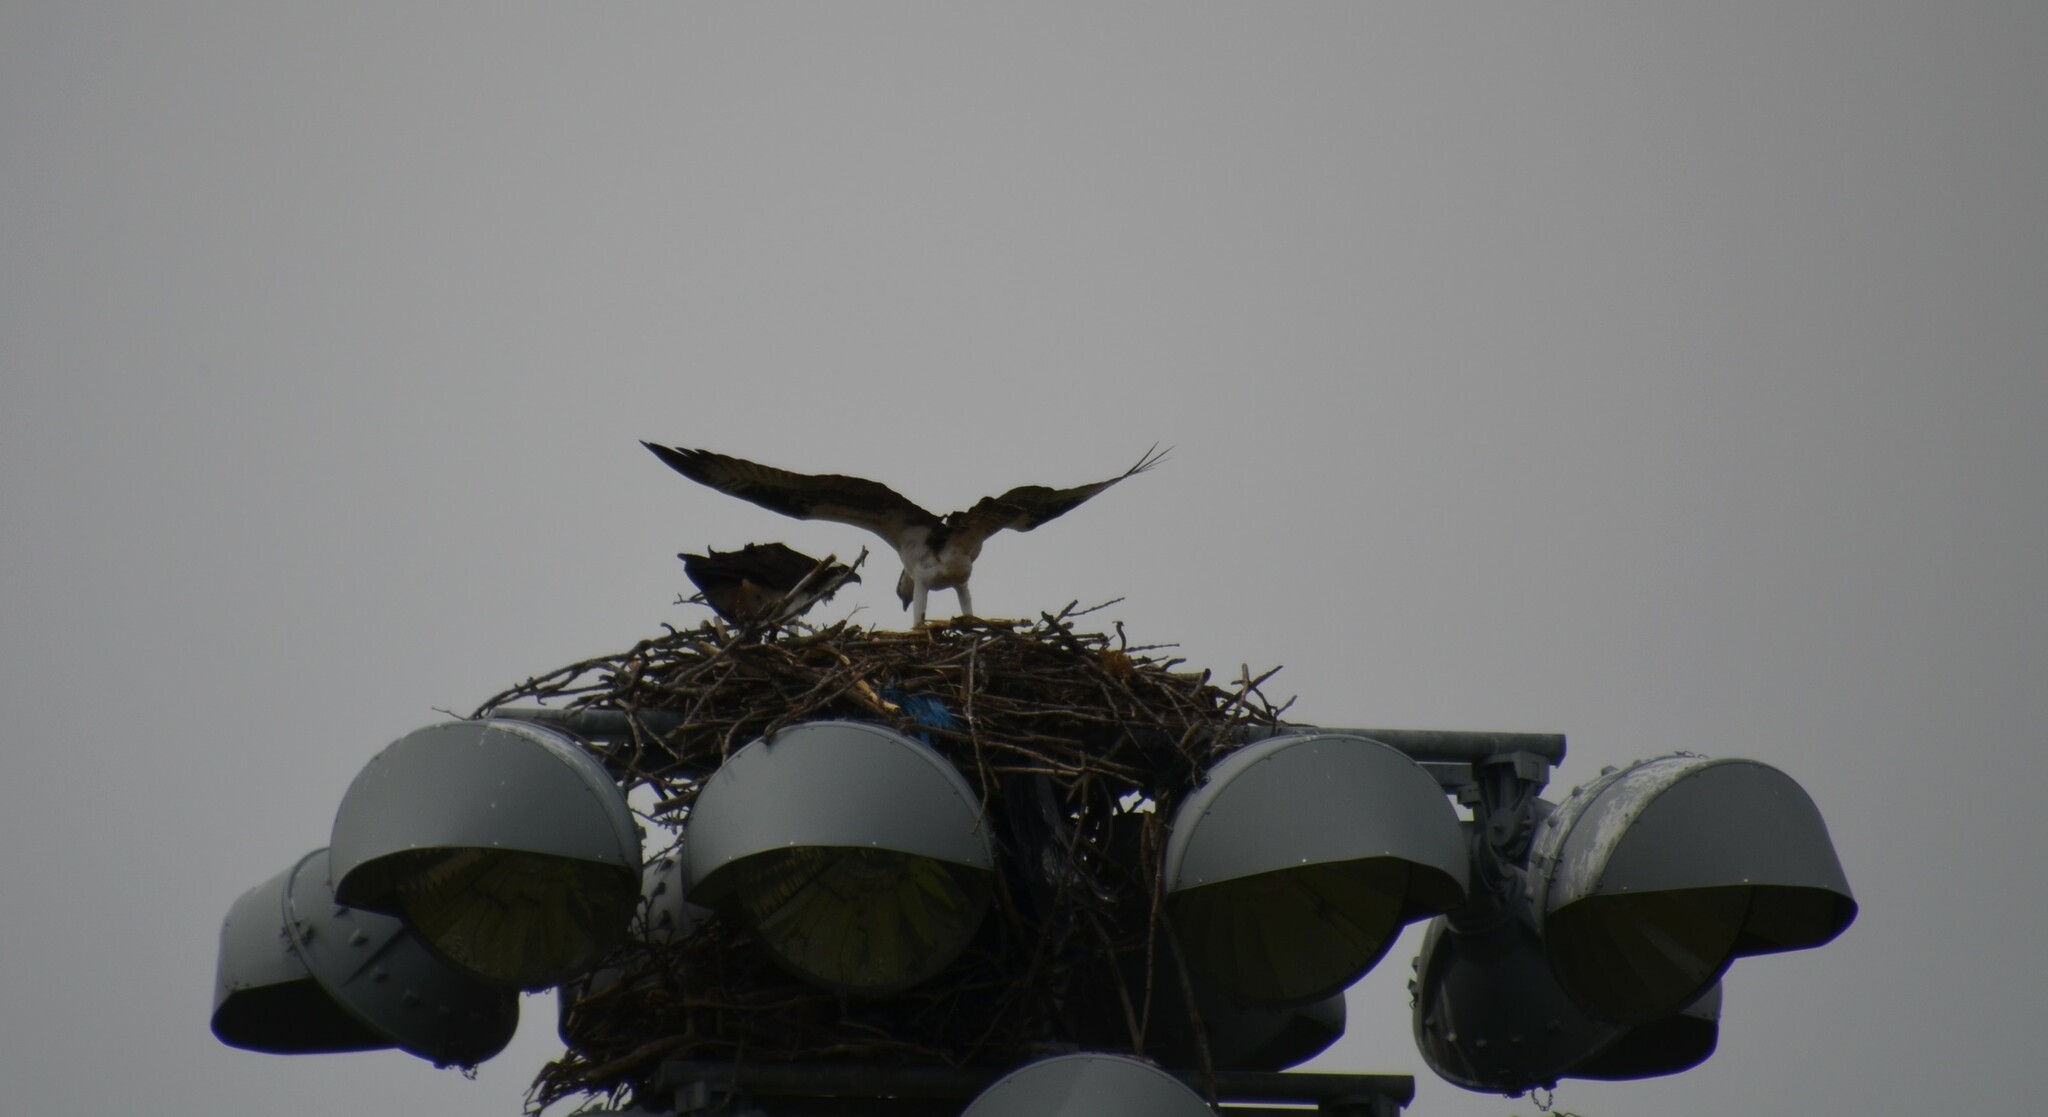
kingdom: Animalia
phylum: Chordata
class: Aves
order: Accipitriformes
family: Pandionidae
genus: Pandion
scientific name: Pandion haliaetus
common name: Osprey
